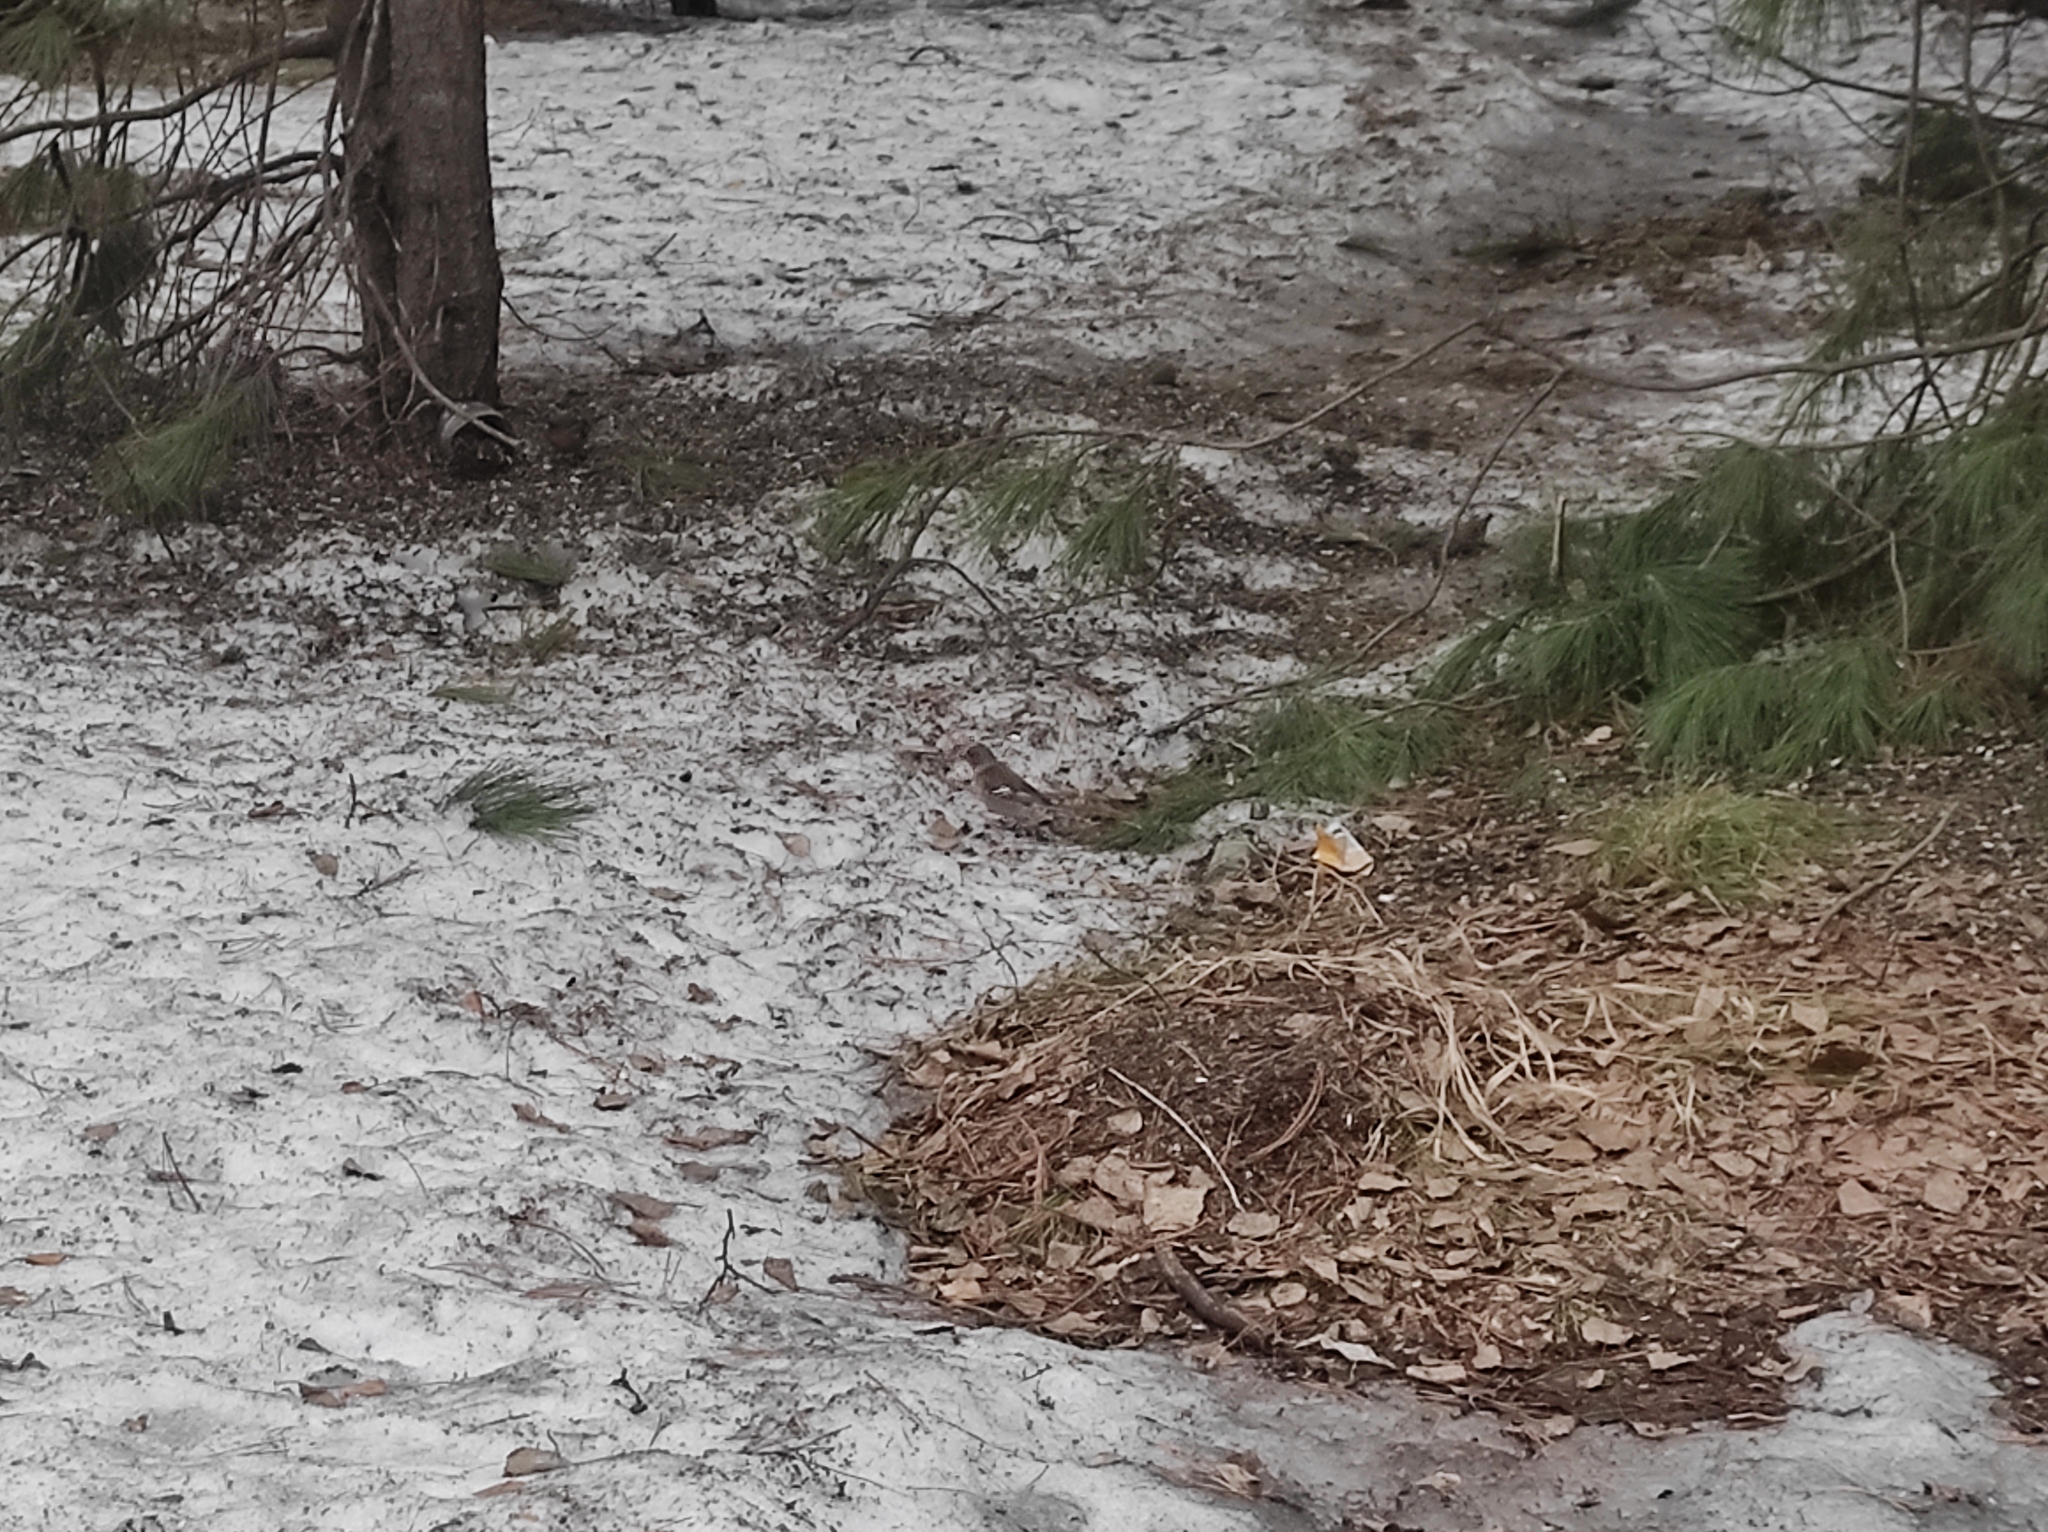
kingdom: Animalia
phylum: Chordata
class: Aves
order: Passeriformes
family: Fringillidae
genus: Fringilla
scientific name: Fringilla coelebs
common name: Common chaffinch
